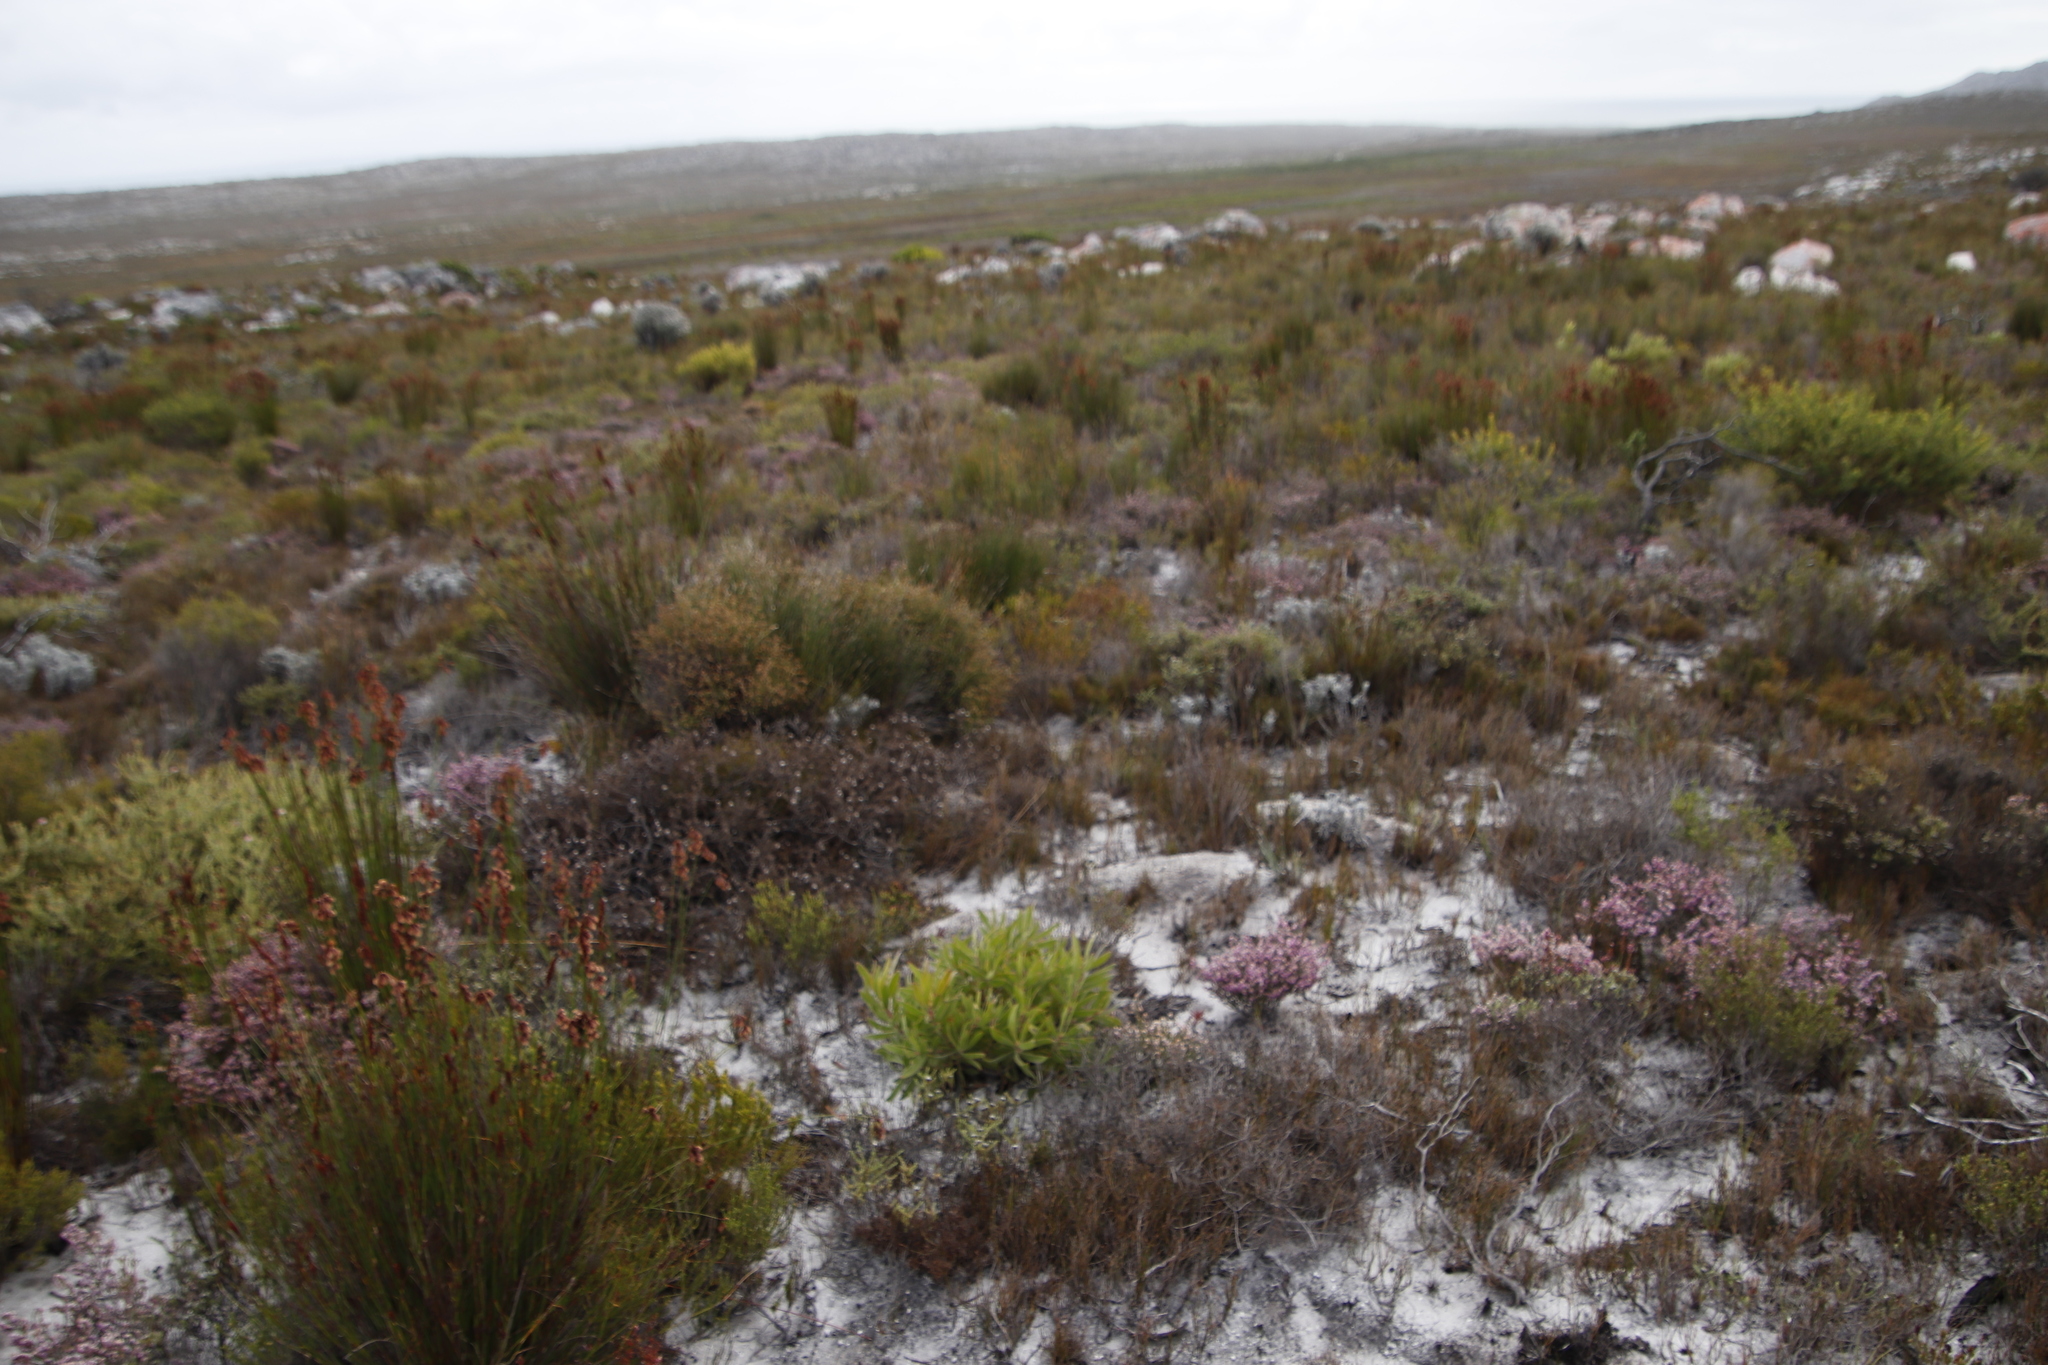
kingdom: Plantae
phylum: Tracheophyta
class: Magnoliopsida
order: Ericales
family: Ericaceae
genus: Erica
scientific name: Erica similis
